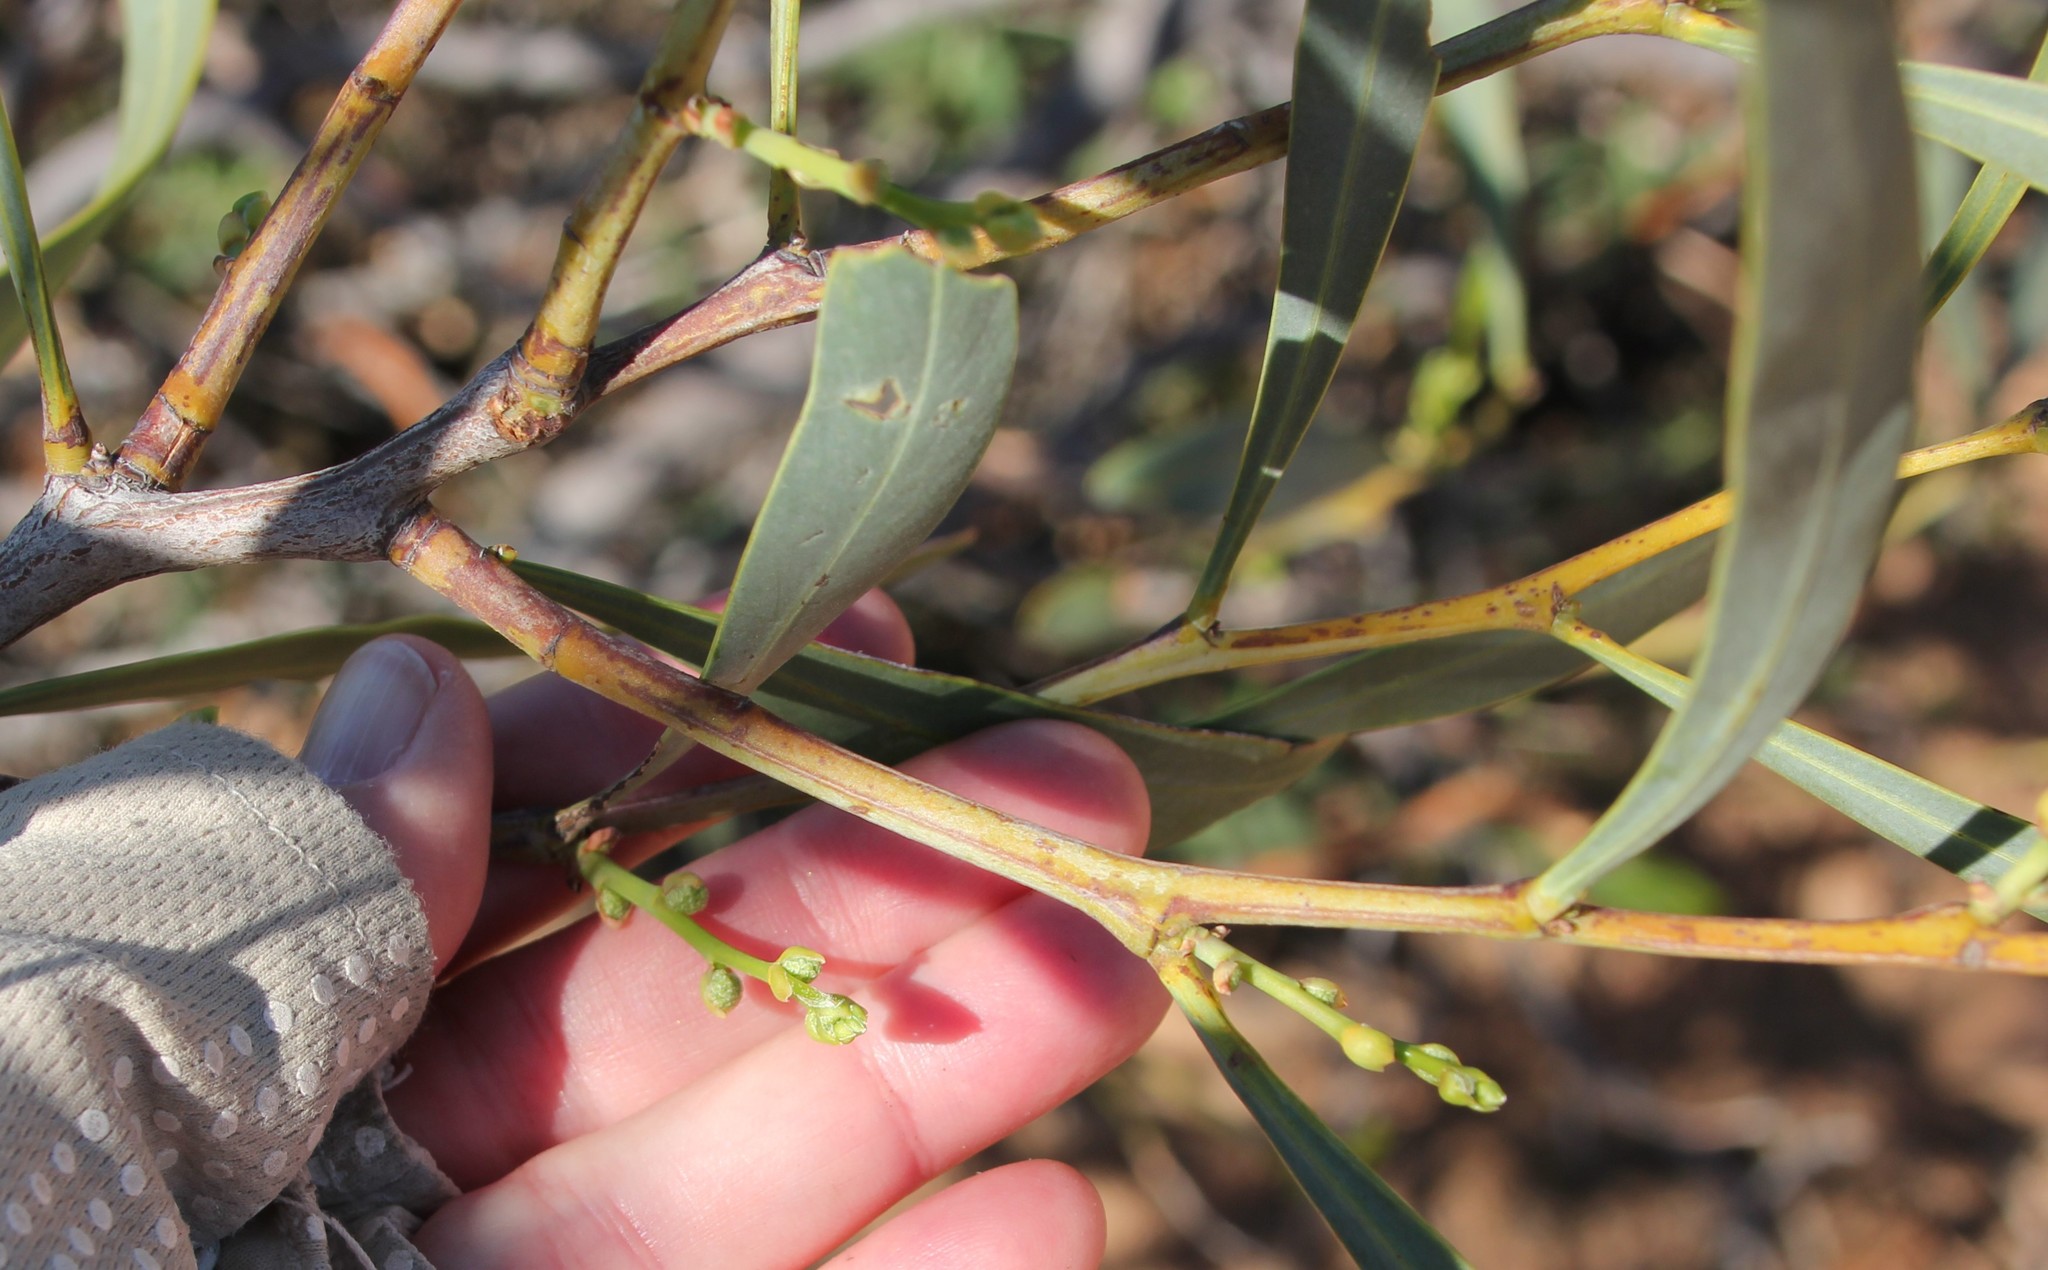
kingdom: Plantae
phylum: Tracheophyta
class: Magnoliopsida
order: Fabales
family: Fabaceae
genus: Acacia
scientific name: Acacia
